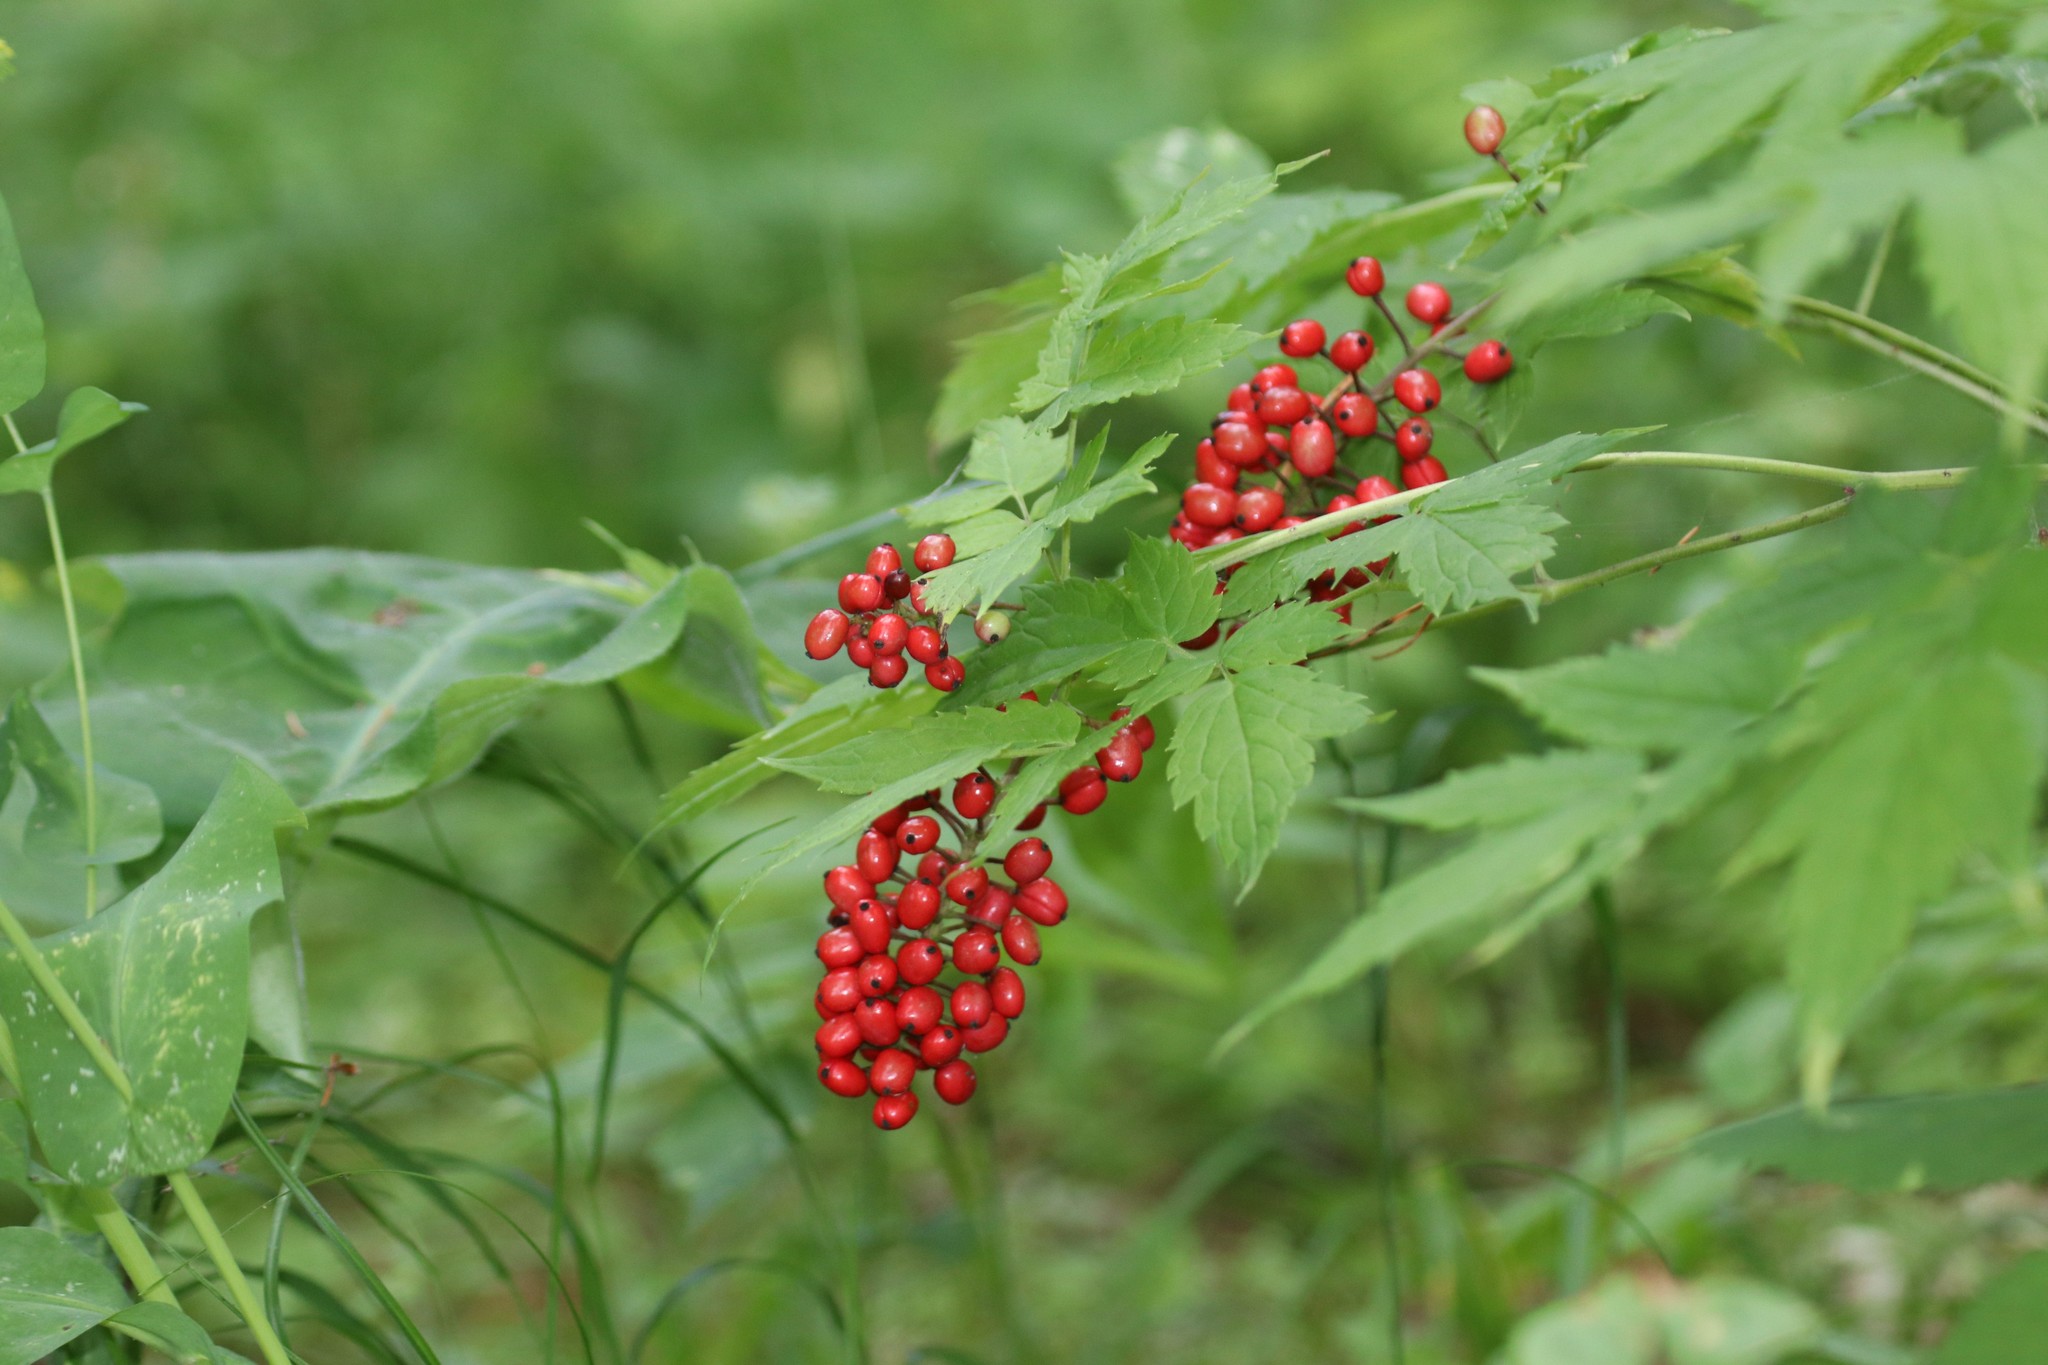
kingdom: Plantae
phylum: Tracheophyta
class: Magnoliopsida
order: Ranunculales
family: Ranunculaceae
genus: Actaea
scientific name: Actaea erythrocarpa
